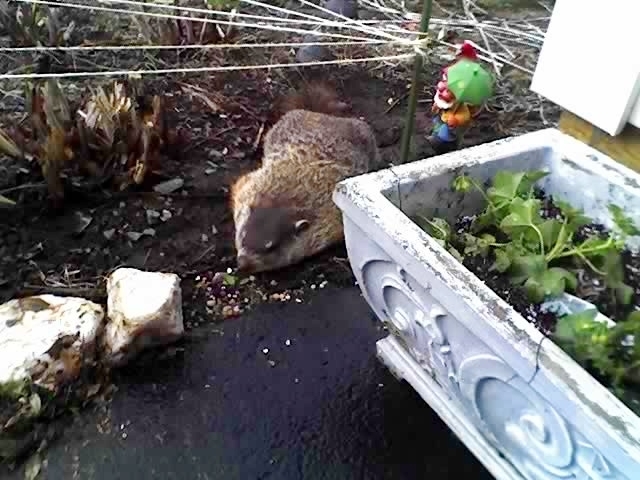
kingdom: Animalia
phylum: Chordata
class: Mammalia
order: Rodentia
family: Sciuridae
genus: Marmota
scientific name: Marmota monax
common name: Groundhog
